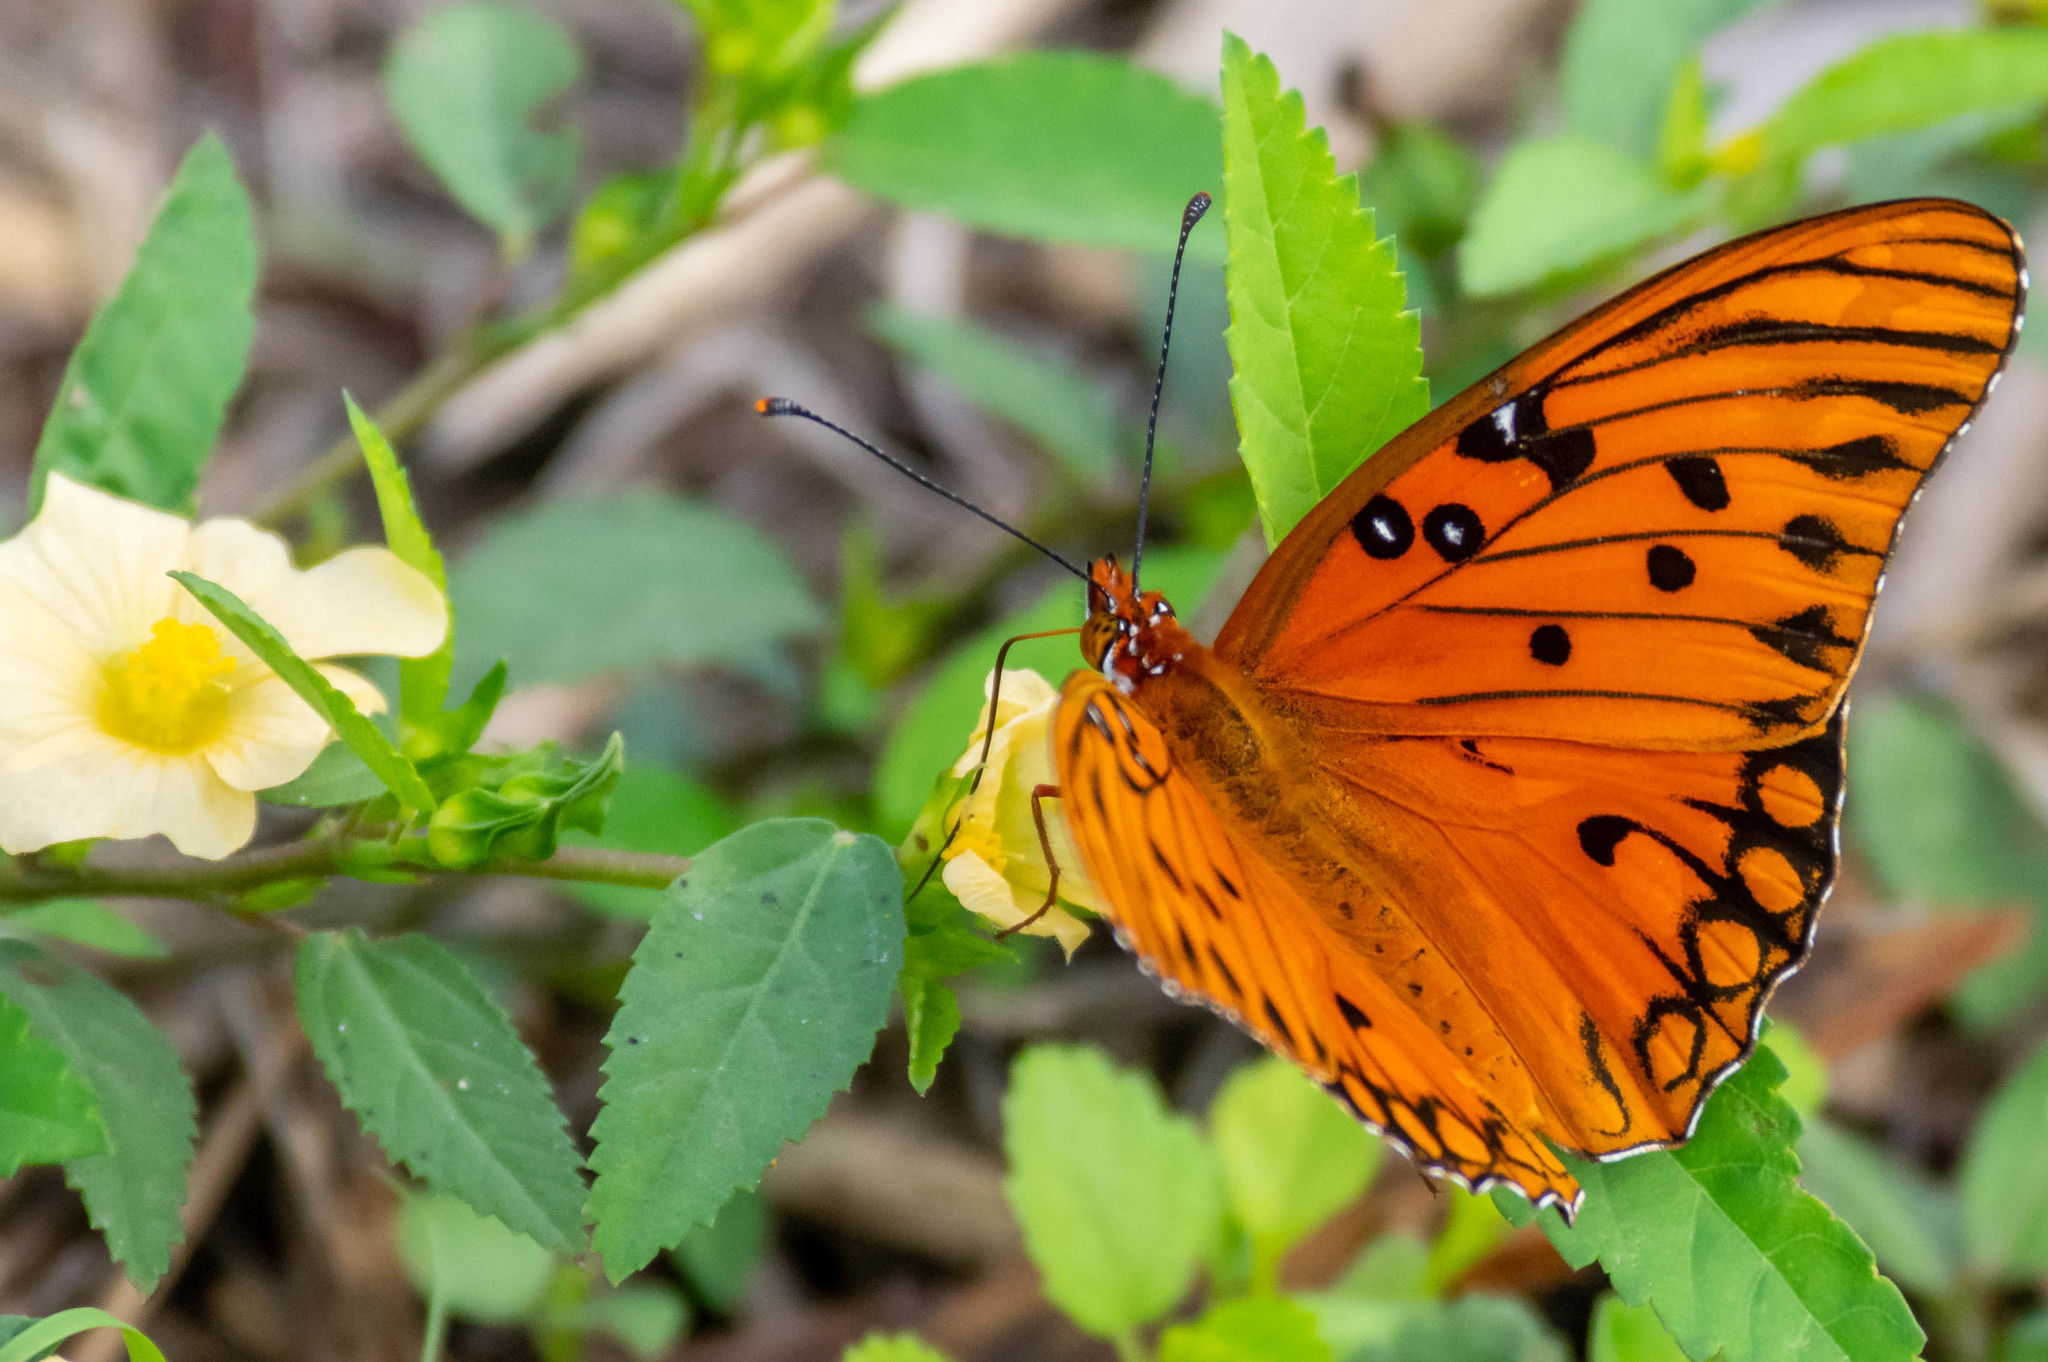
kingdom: Animalia
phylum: Arthropoda
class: Insecta
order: Lepidoptera
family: Nymphalidae
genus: Dione
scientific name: Dione vanillae
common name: Gulf fritillary
